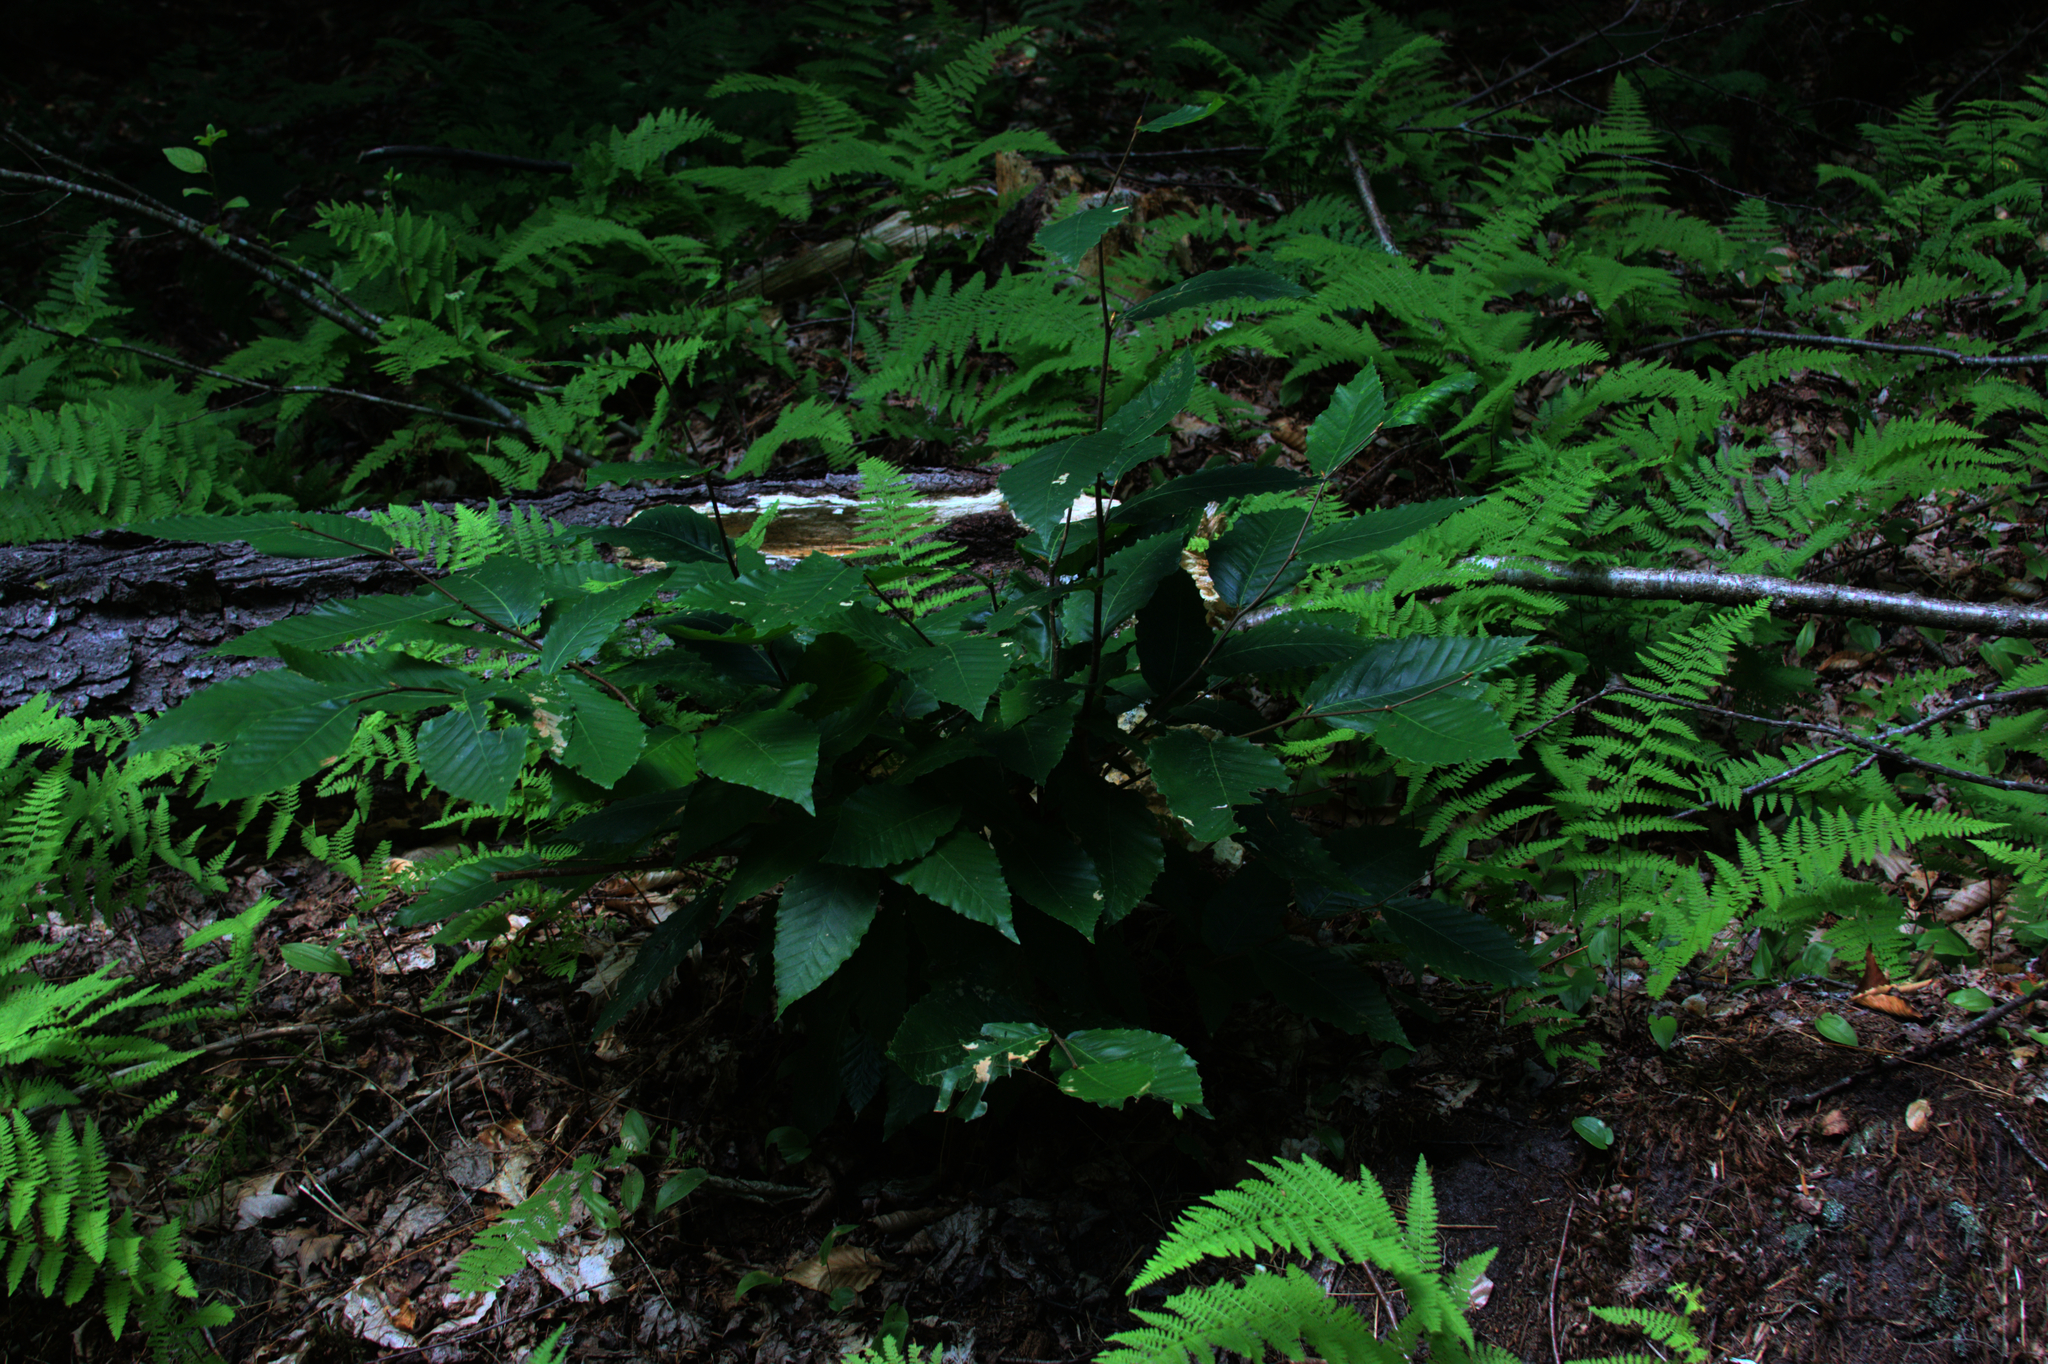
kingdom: Plantae
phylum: Tracheophyta
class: Magnoliopsida
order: Fagales
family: Fagaceae
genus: Fagus
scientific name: Fagus grandifolia
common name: American beech
